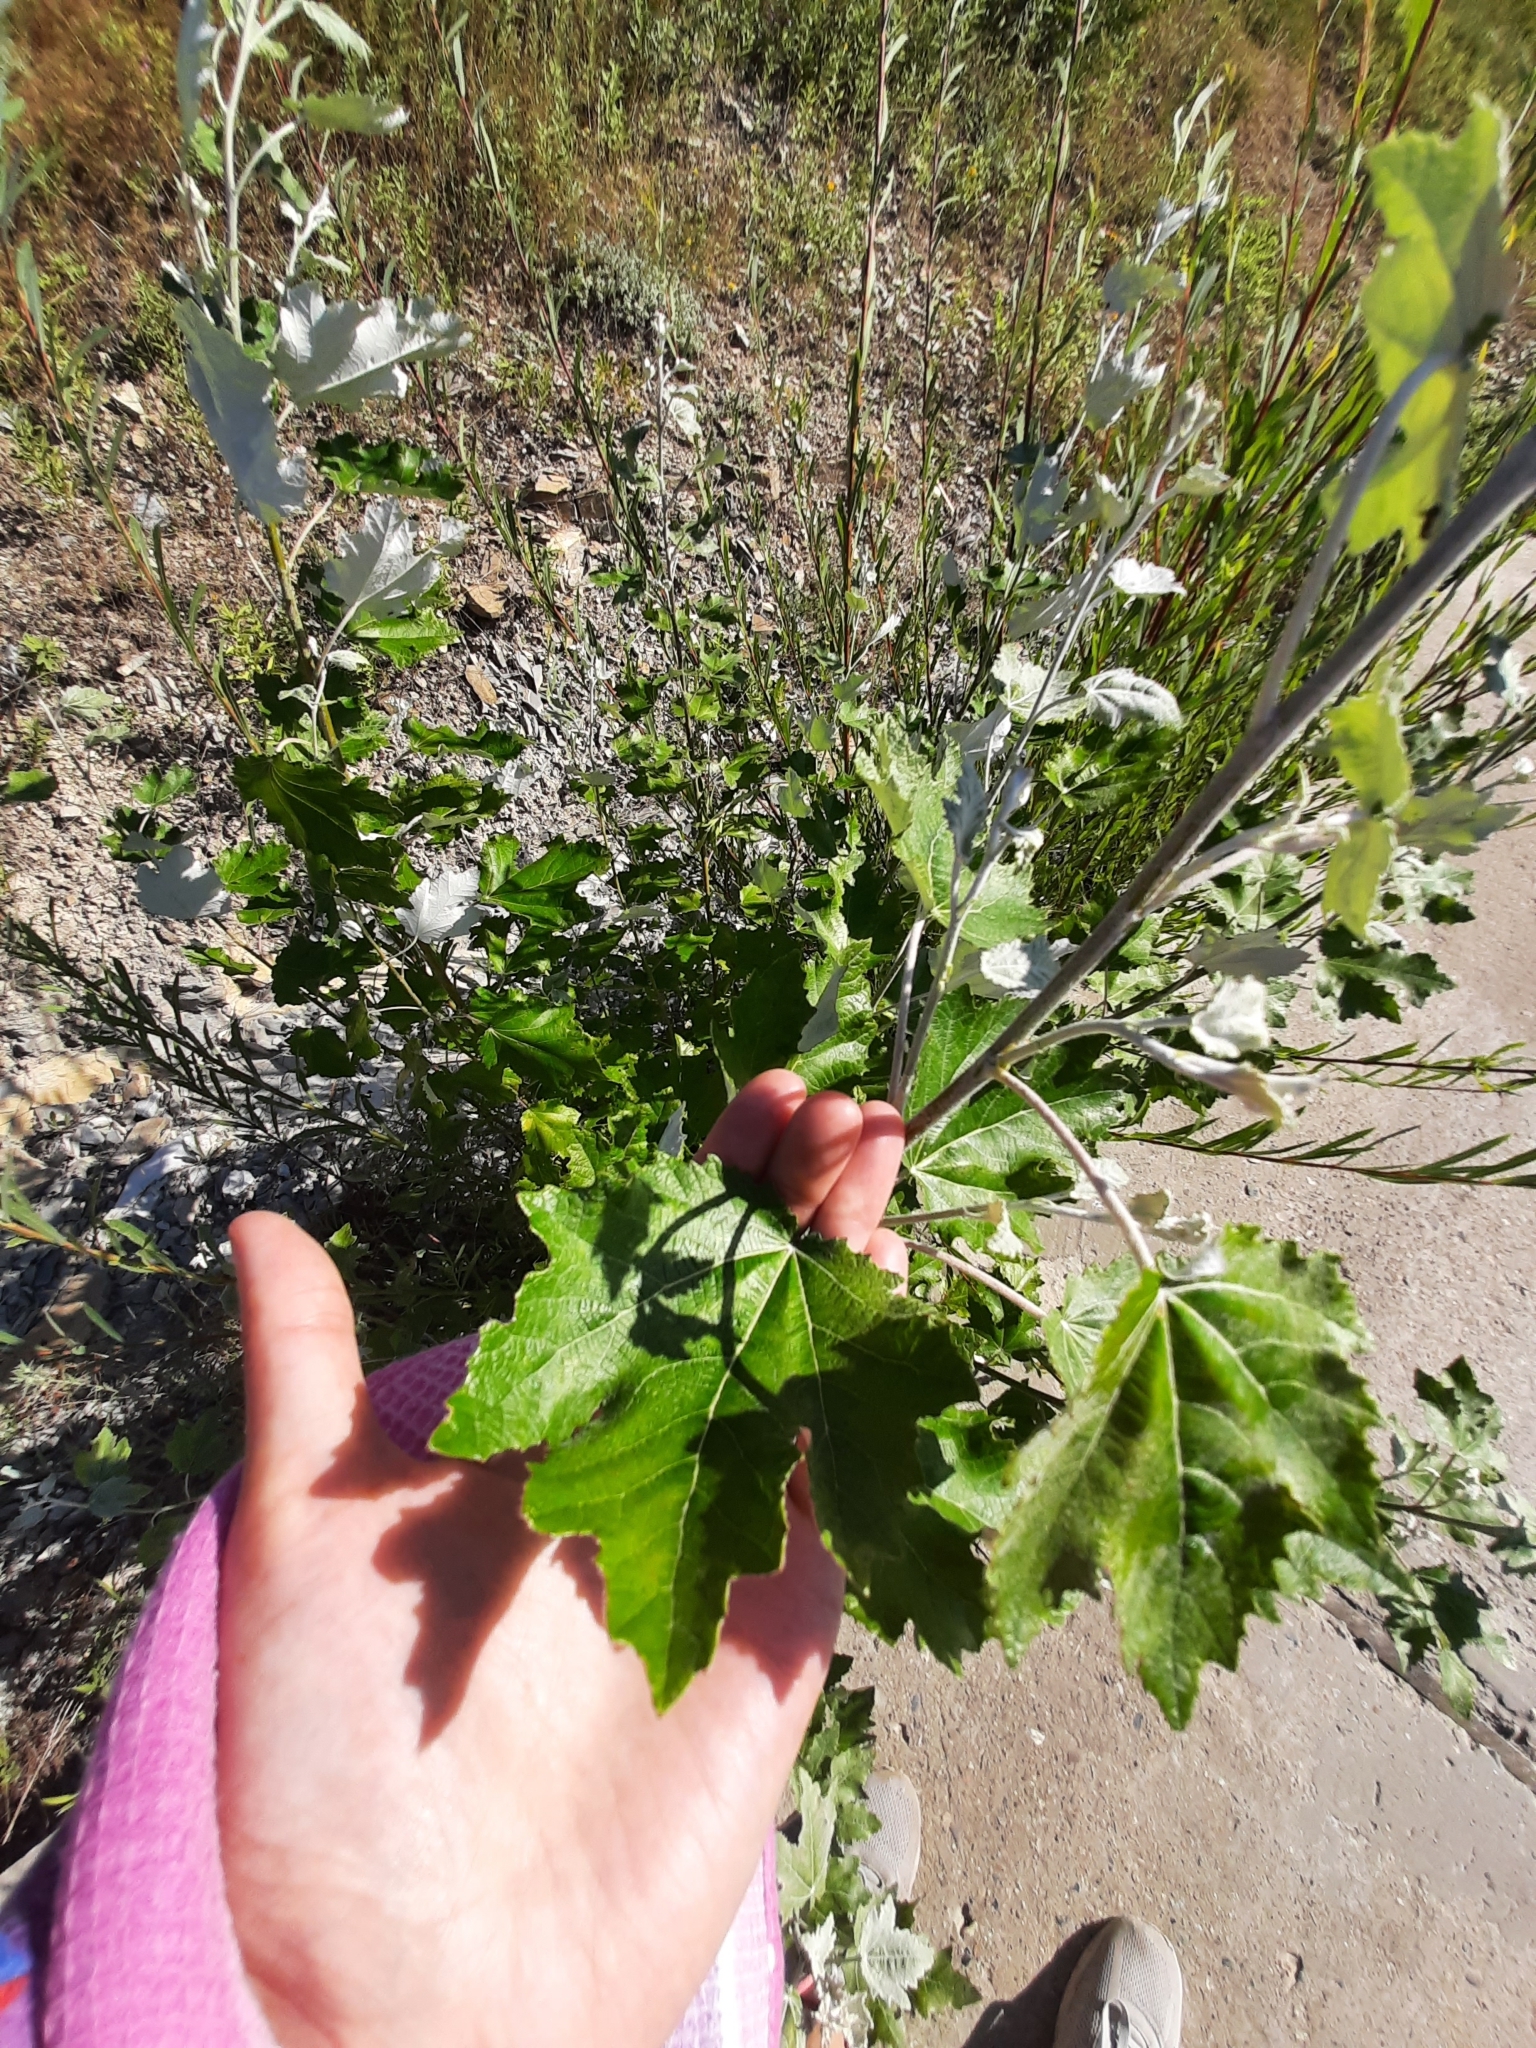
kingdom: Plantae
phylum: Tracheophyta
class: Magnoliopsida
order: Malpighiales
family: Salicaceae
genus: Populus
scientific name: Populus alba
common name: White poplar
